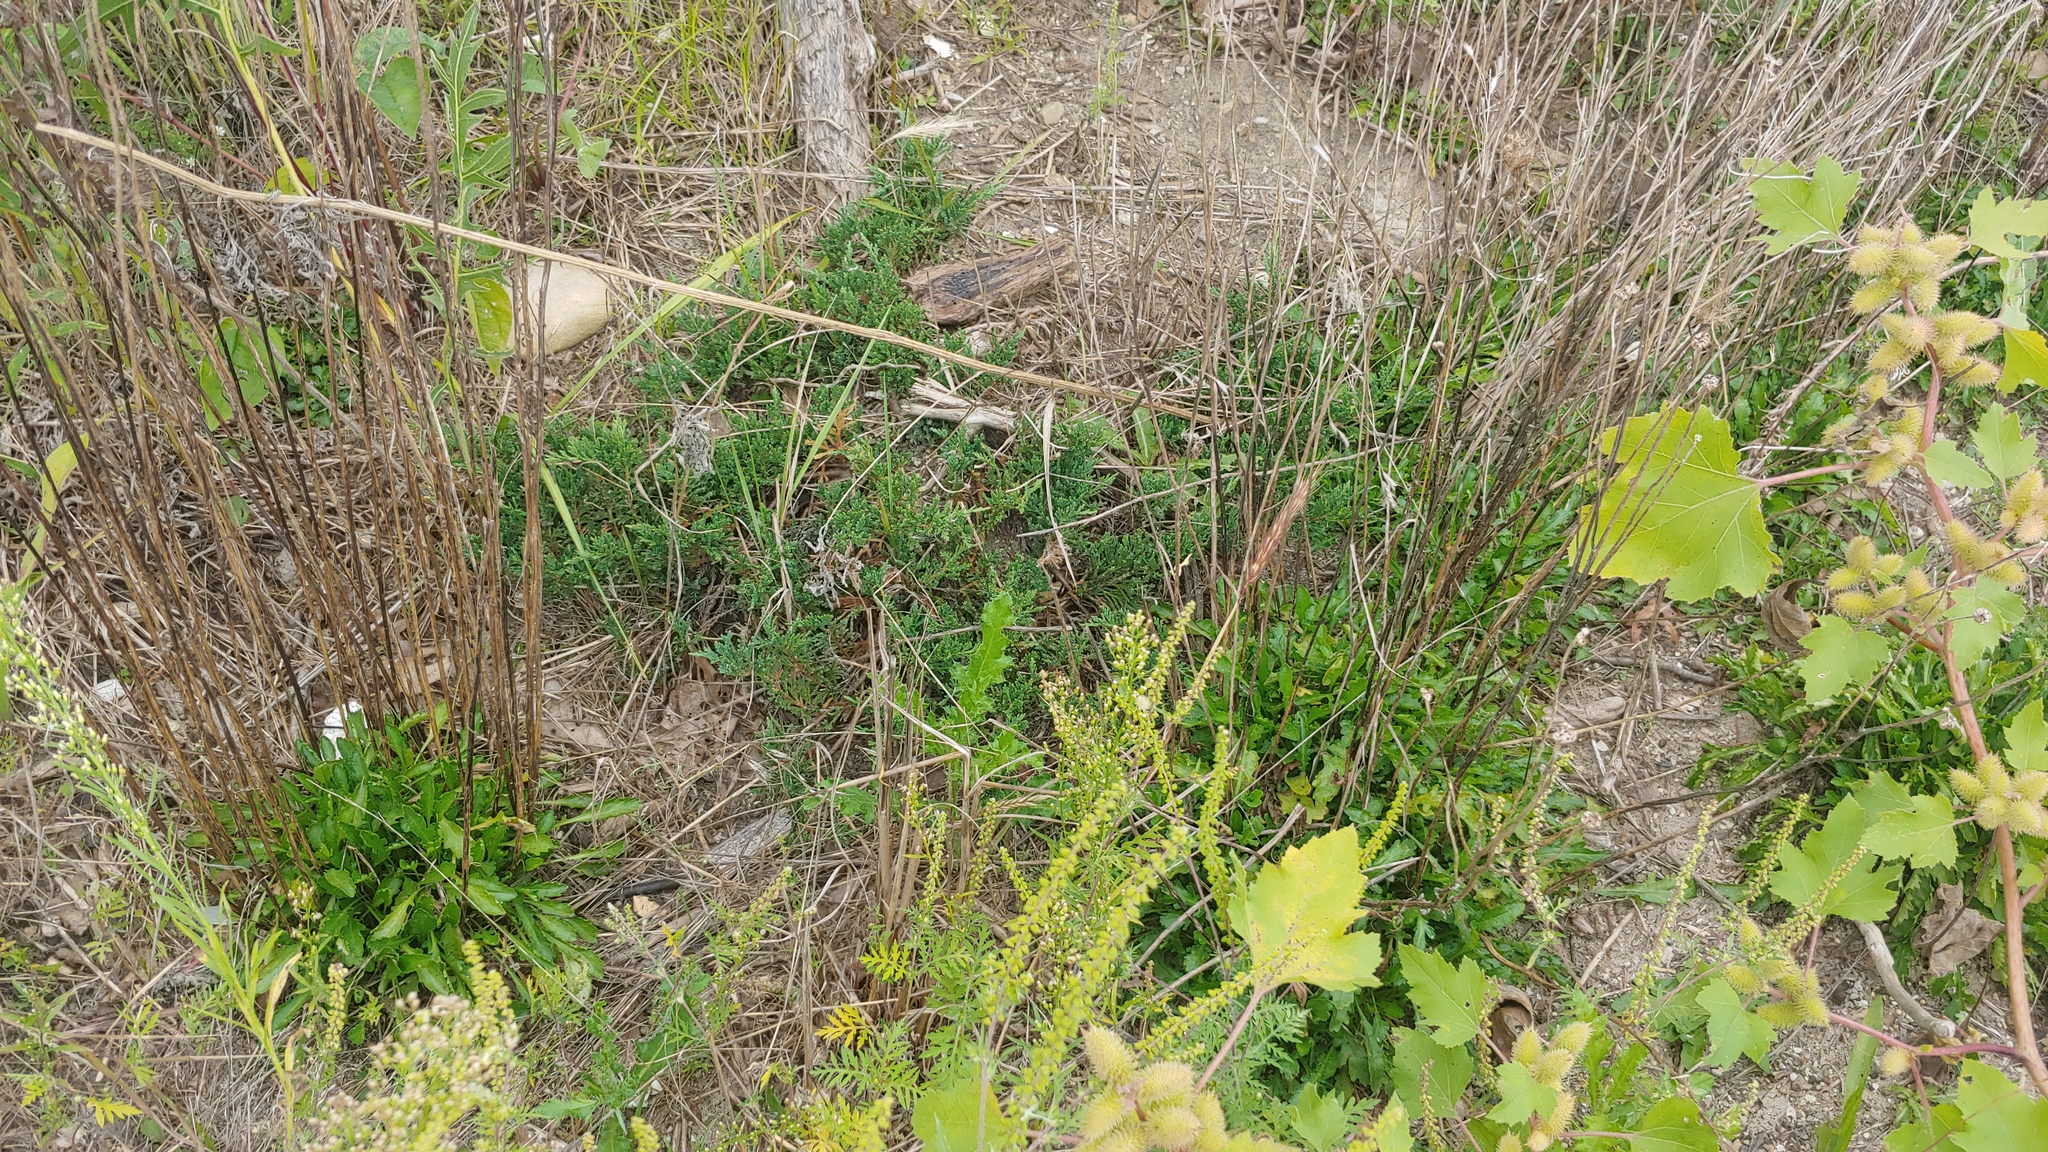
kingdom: Plantae
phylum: Tracheophyta
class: Pinopsida
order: Pinales
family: Cupressaceae
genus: Juniperus
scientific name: Juniperus horizontalis
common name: Creeping juniper
